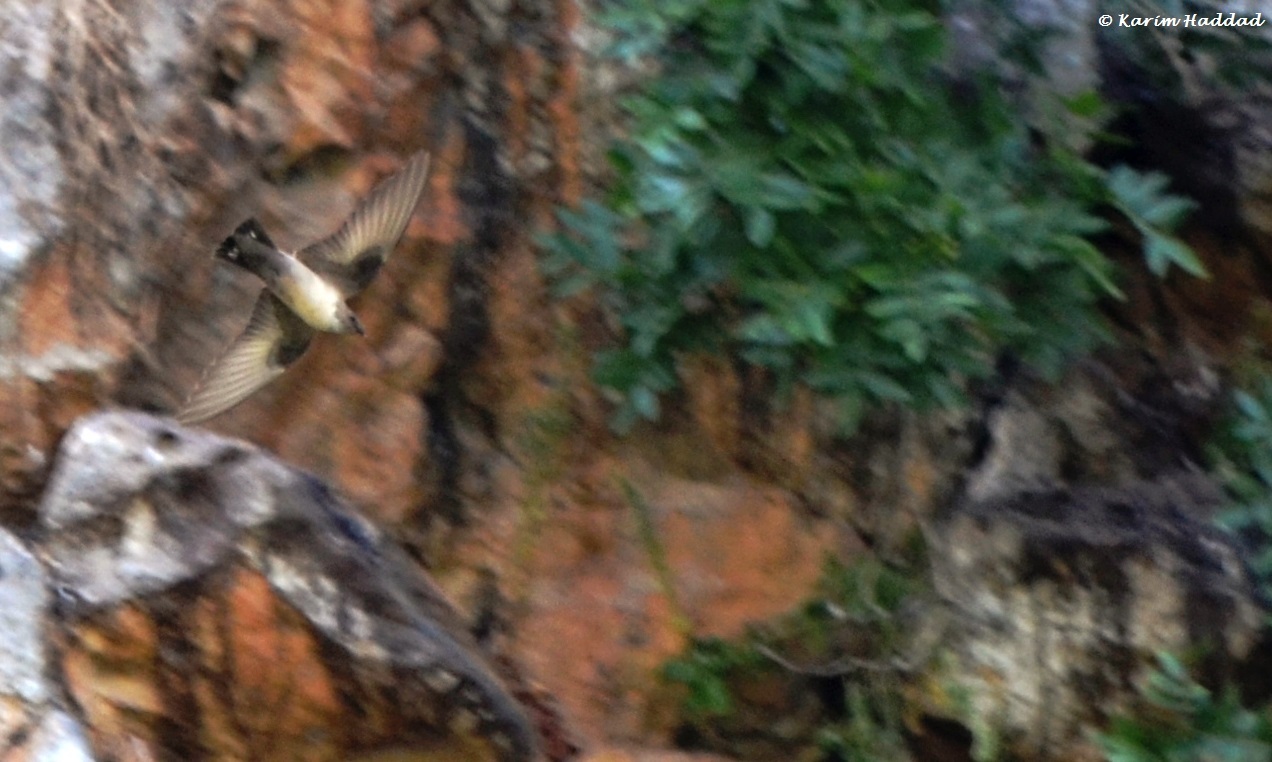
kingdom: Animalia
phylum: Chordata
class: Aves
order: Passeriformes
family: Hirundinidae
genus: Ptyonoprogne
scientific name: Ptyonoprogne rupestris
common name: Eurasian crag martin
